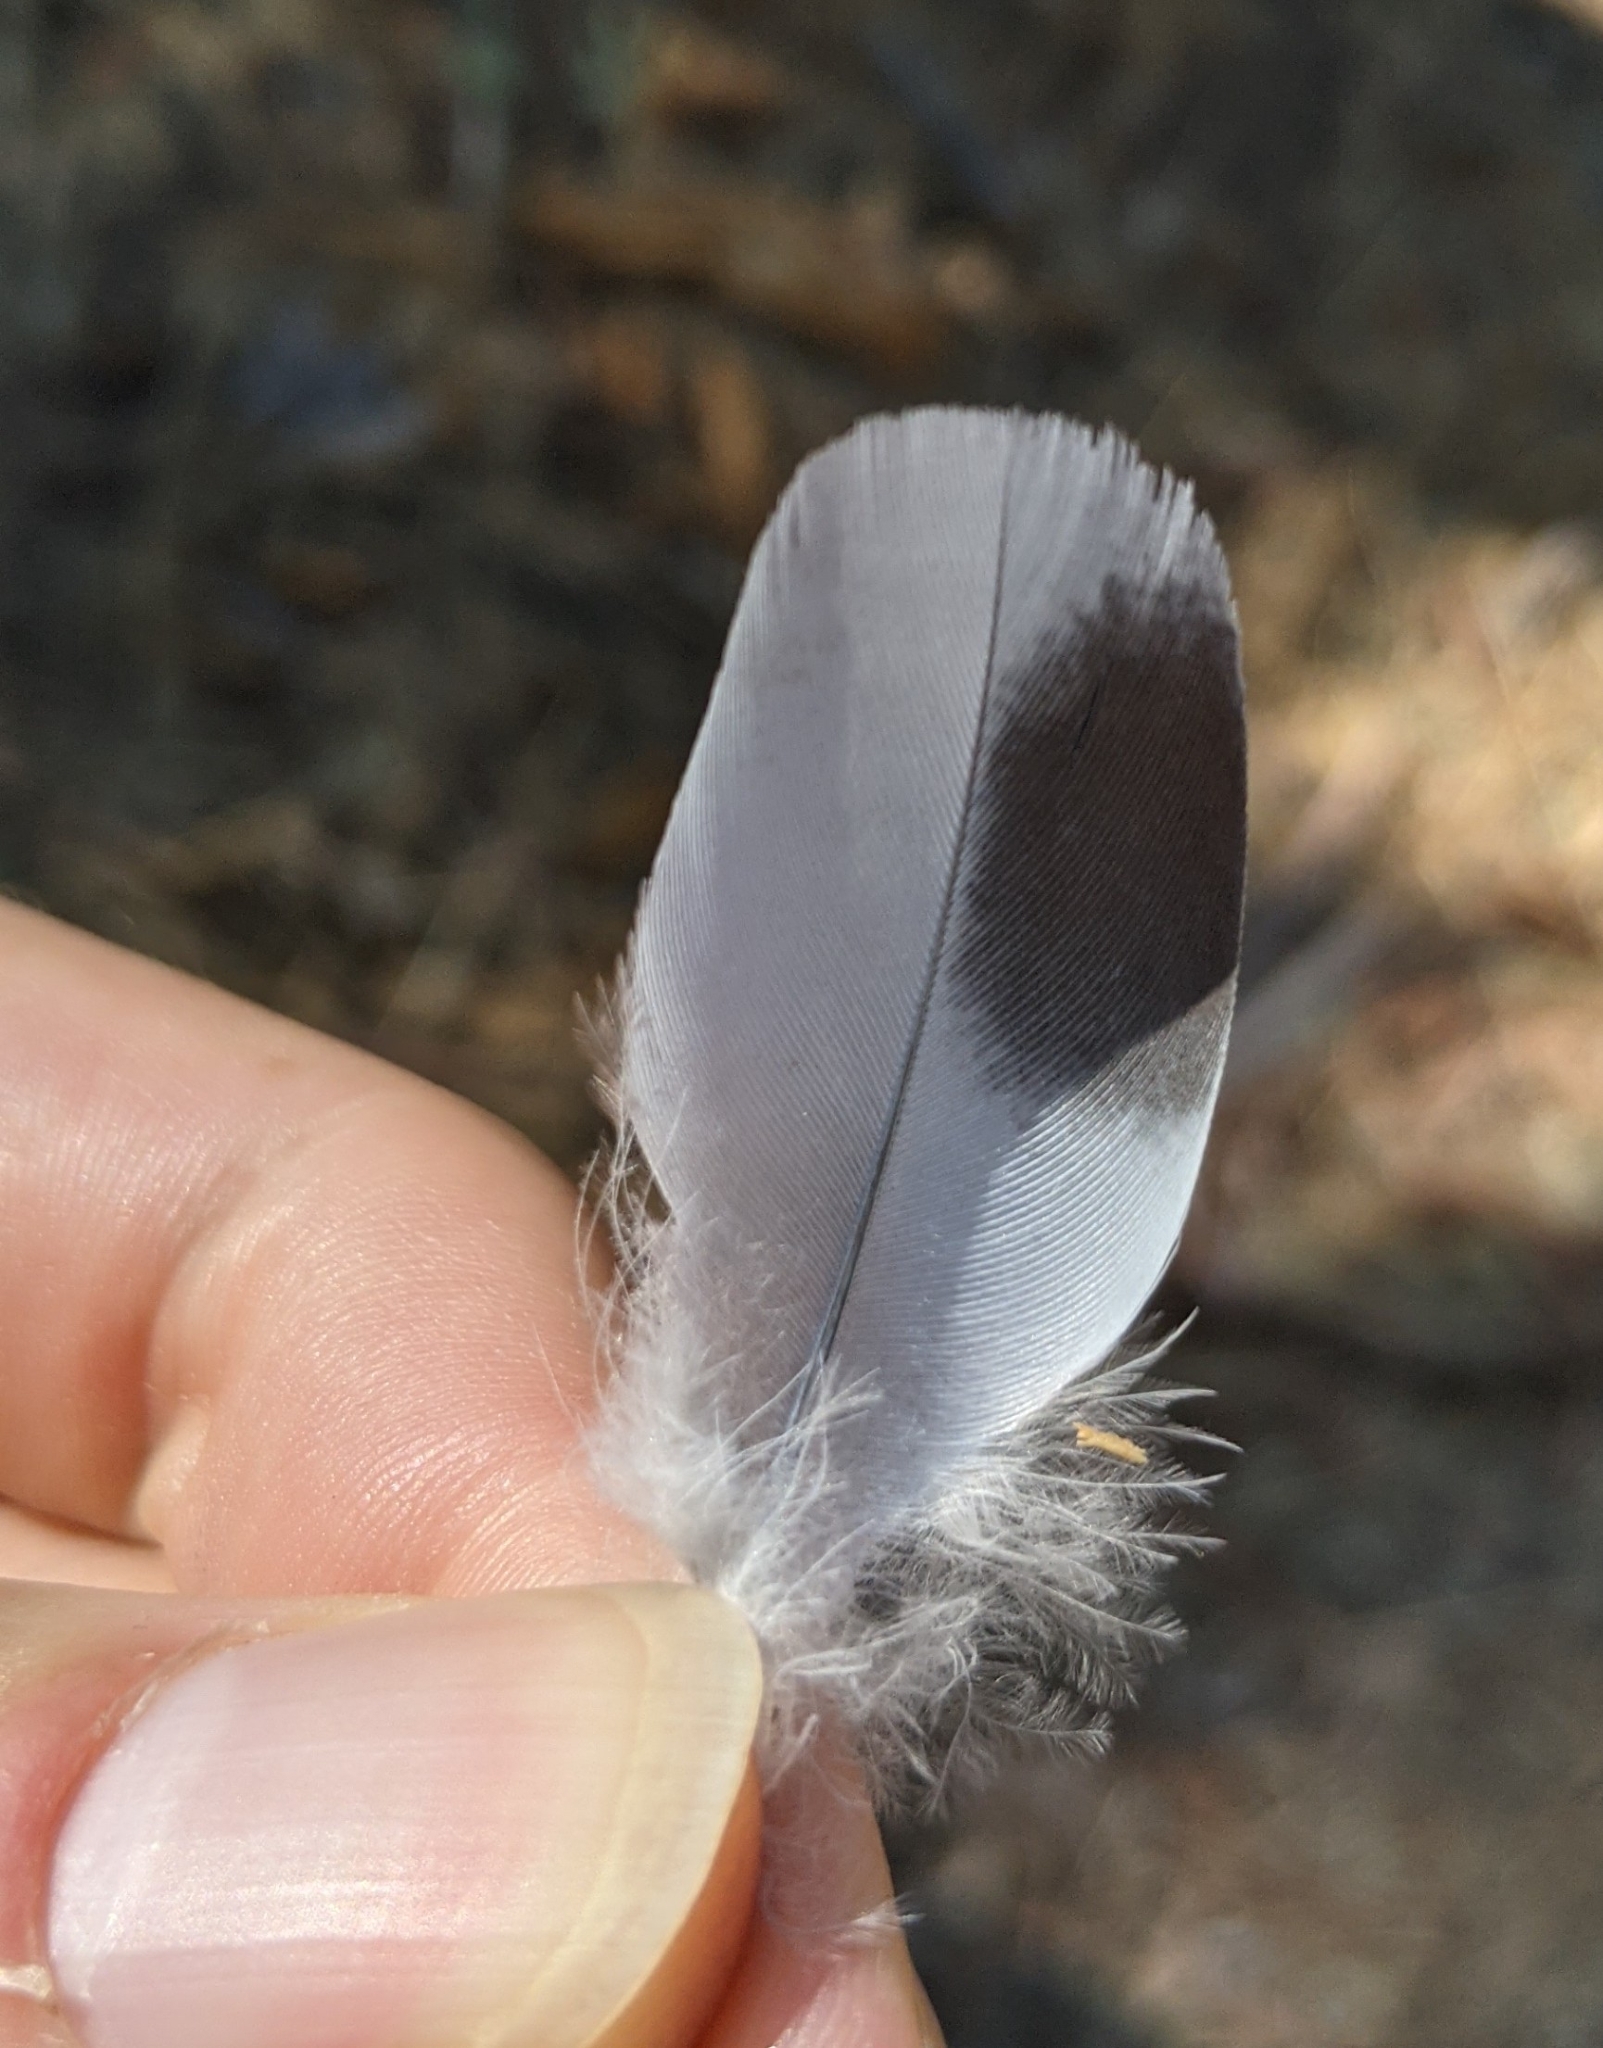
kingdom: Animalia
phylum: Chordata
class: Aves
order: Columbiformes
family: Columbidae
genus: Columba
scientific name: Columba livia
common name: Rock pigeon
